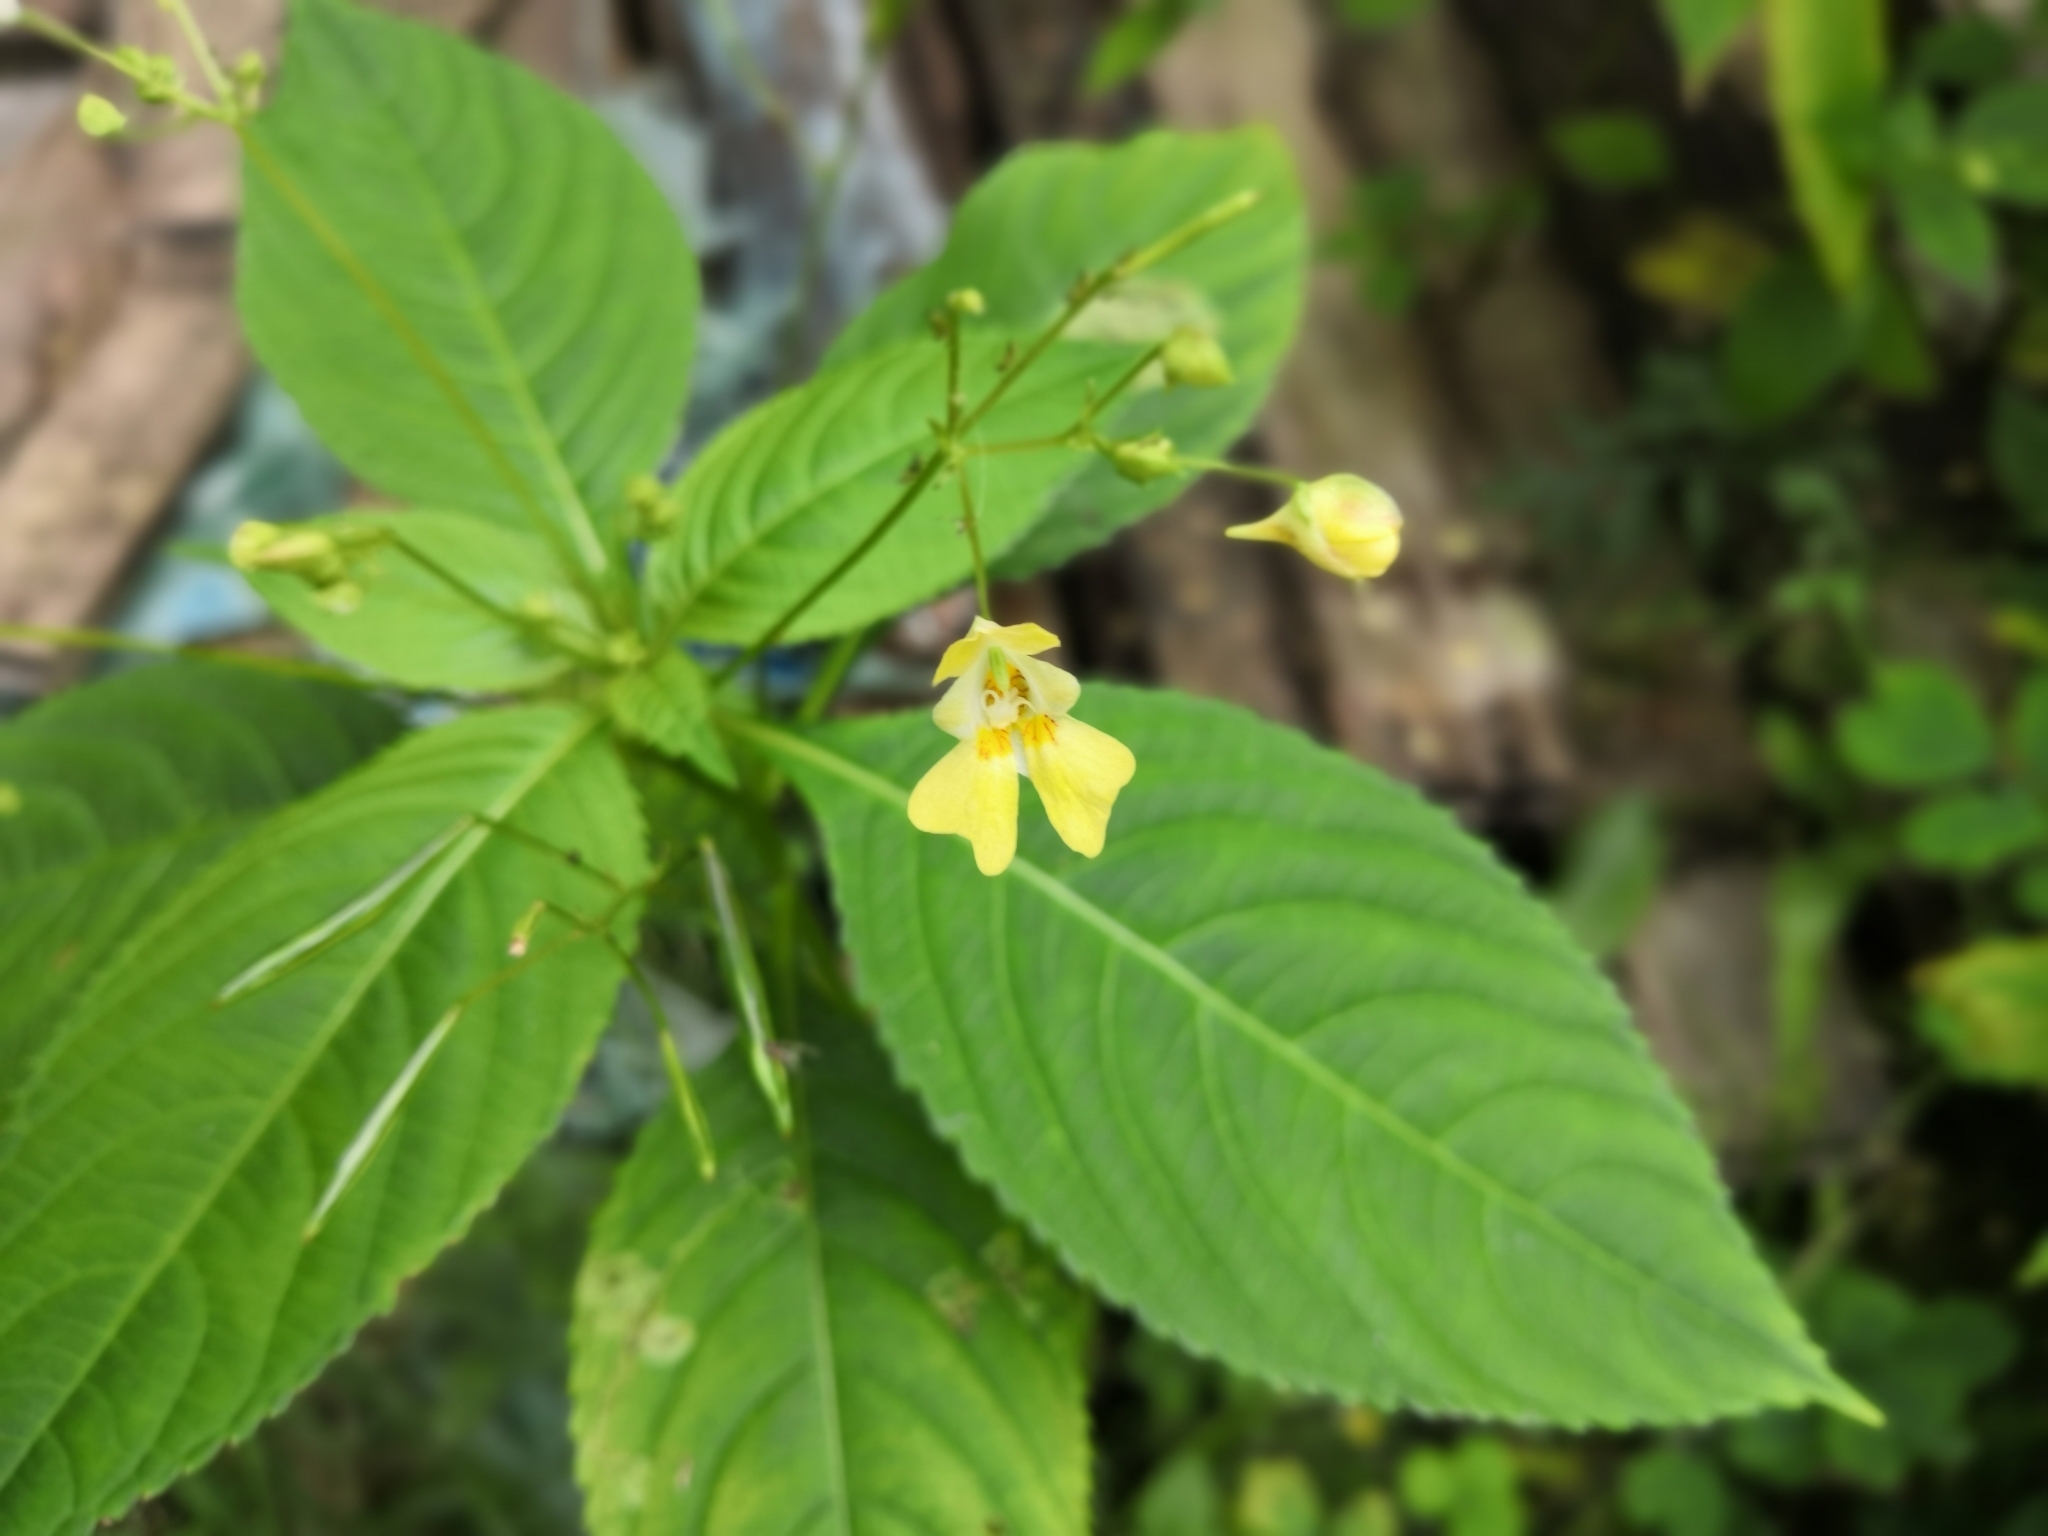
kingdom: Plantae
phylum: Tracheophyta
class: Magnoliopsida
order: Ericales
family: Balsaminaceae
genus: Impatiens
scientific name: Impatiens parviflora
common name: Small balsam
